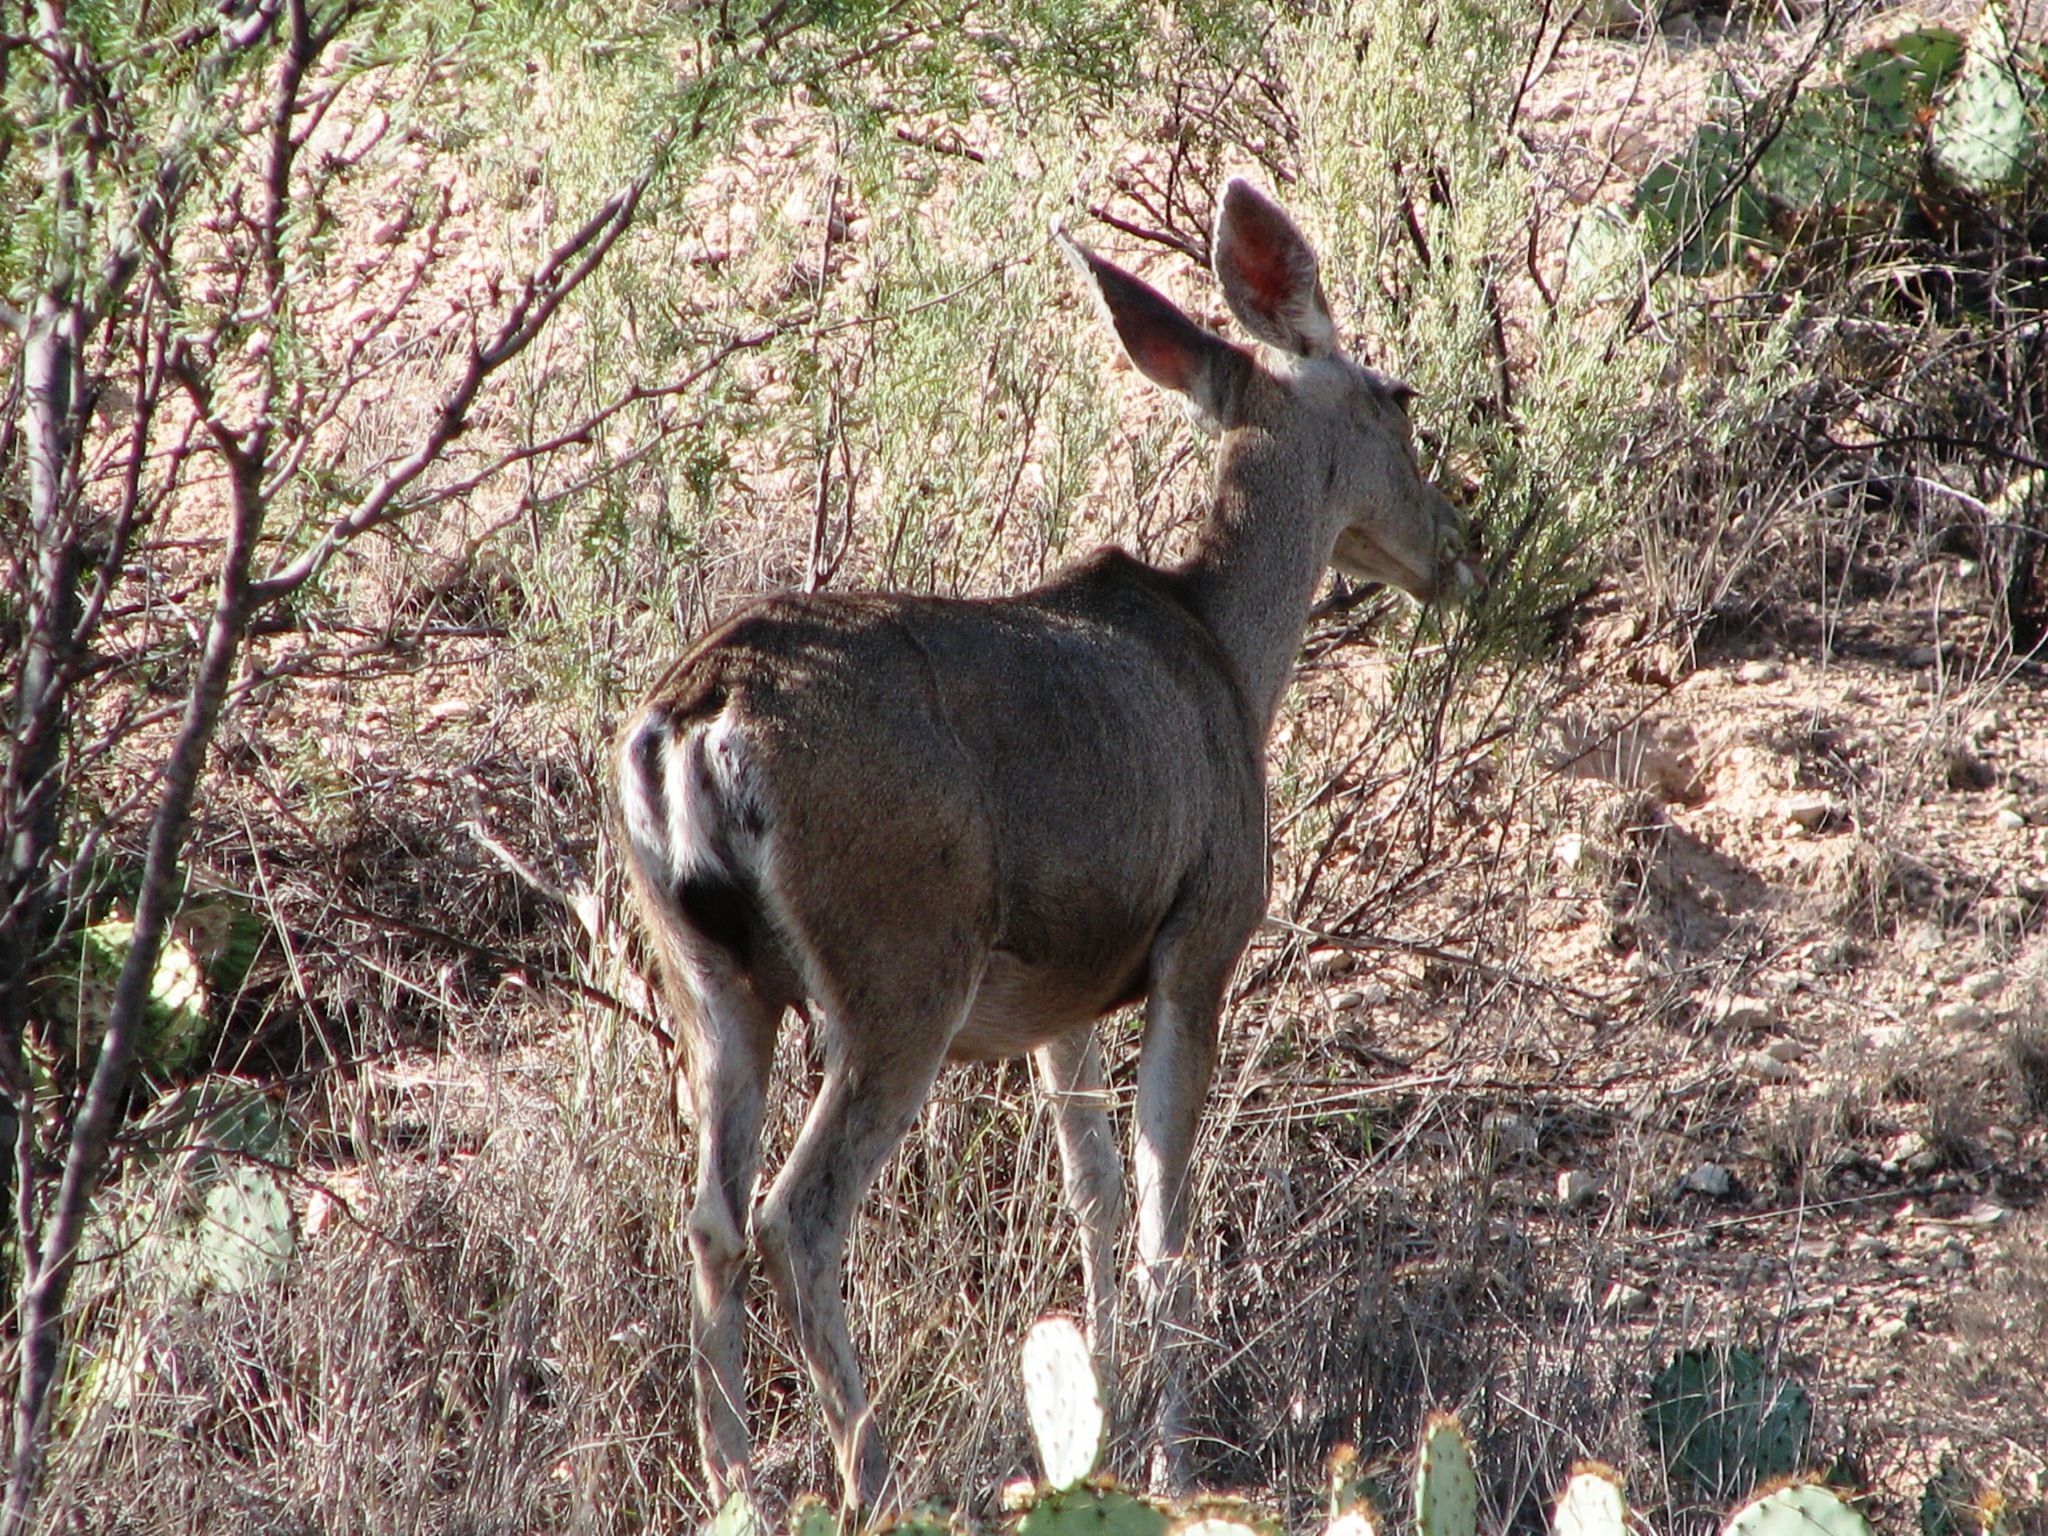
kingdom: Animalia
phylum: Chordata
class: Mammalia
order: Artiodactyla
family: Cervidae
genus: Odocoileus
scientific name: Odocoileus hemionus
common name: Mule deer
